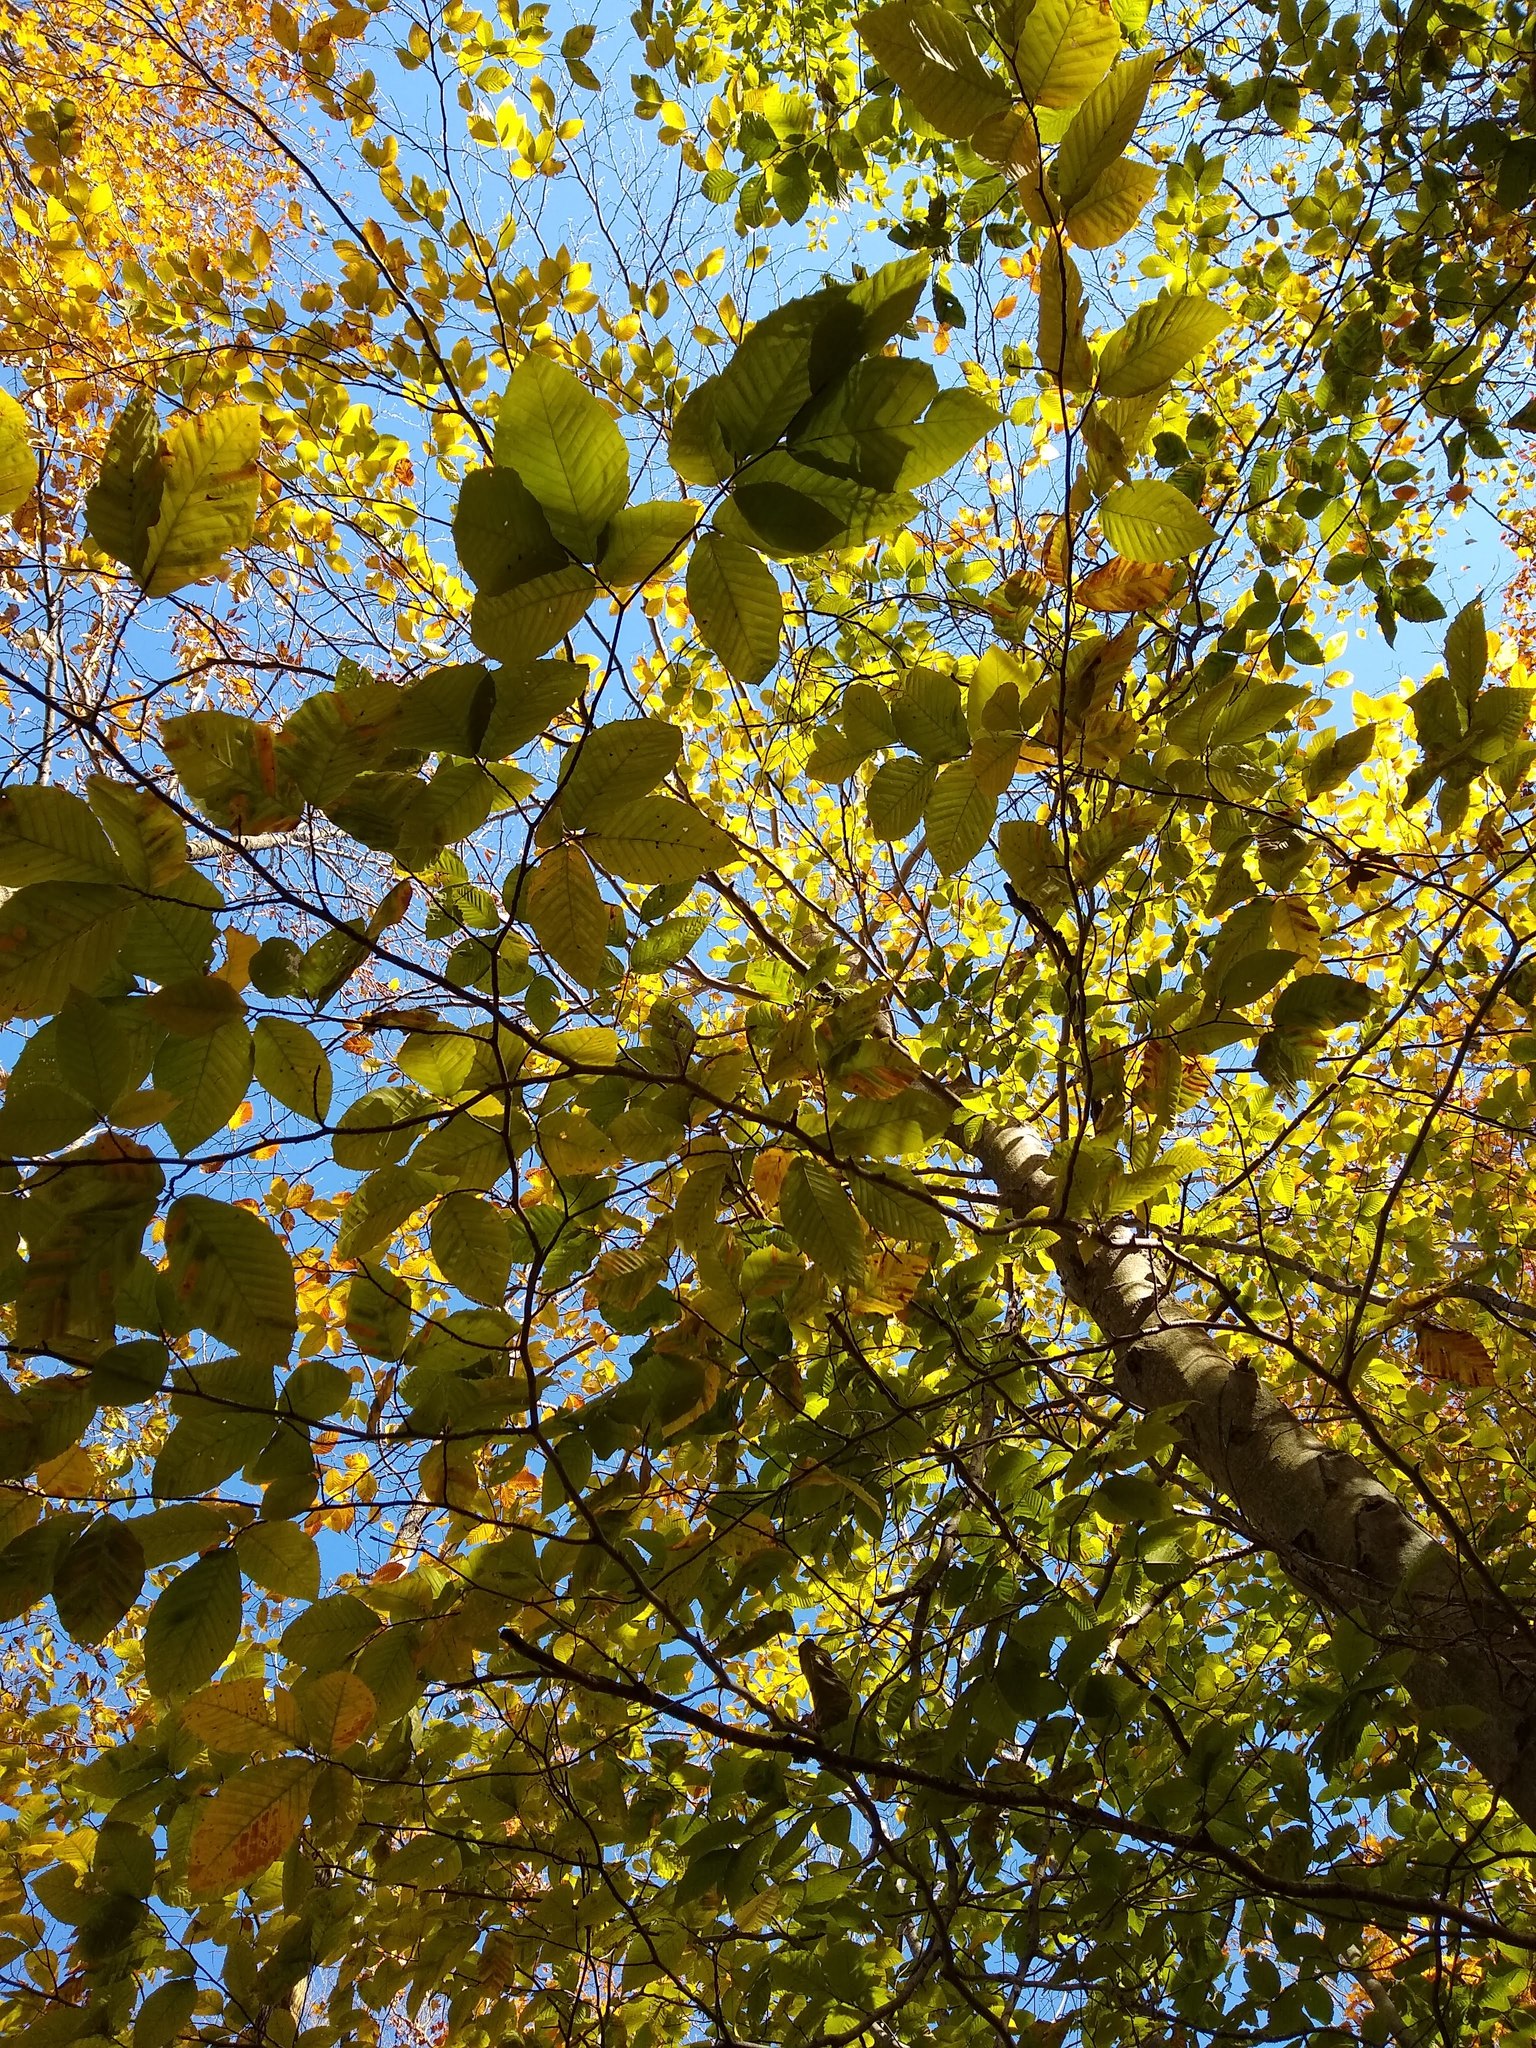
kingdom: Plantae
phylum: Tracheophyta
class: Magnoliopsida
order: Fagales
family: Fagaceae
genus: Fagus
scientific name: Fagus grandifolia
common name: American beech
